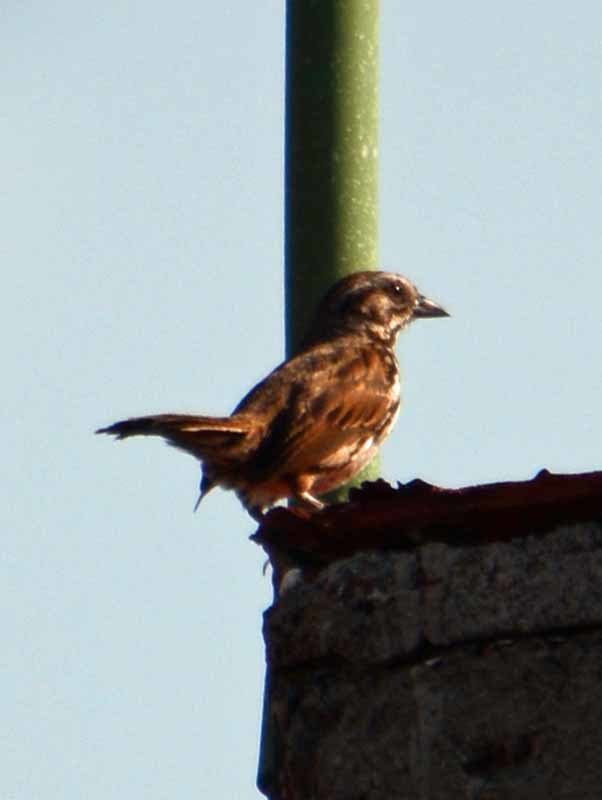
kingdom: Animalia
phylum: Chordata
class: Aves
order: Passeriformes
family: Passerellidae
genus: Melospiza
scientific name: Melospiza melodia
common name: Song sparrow
